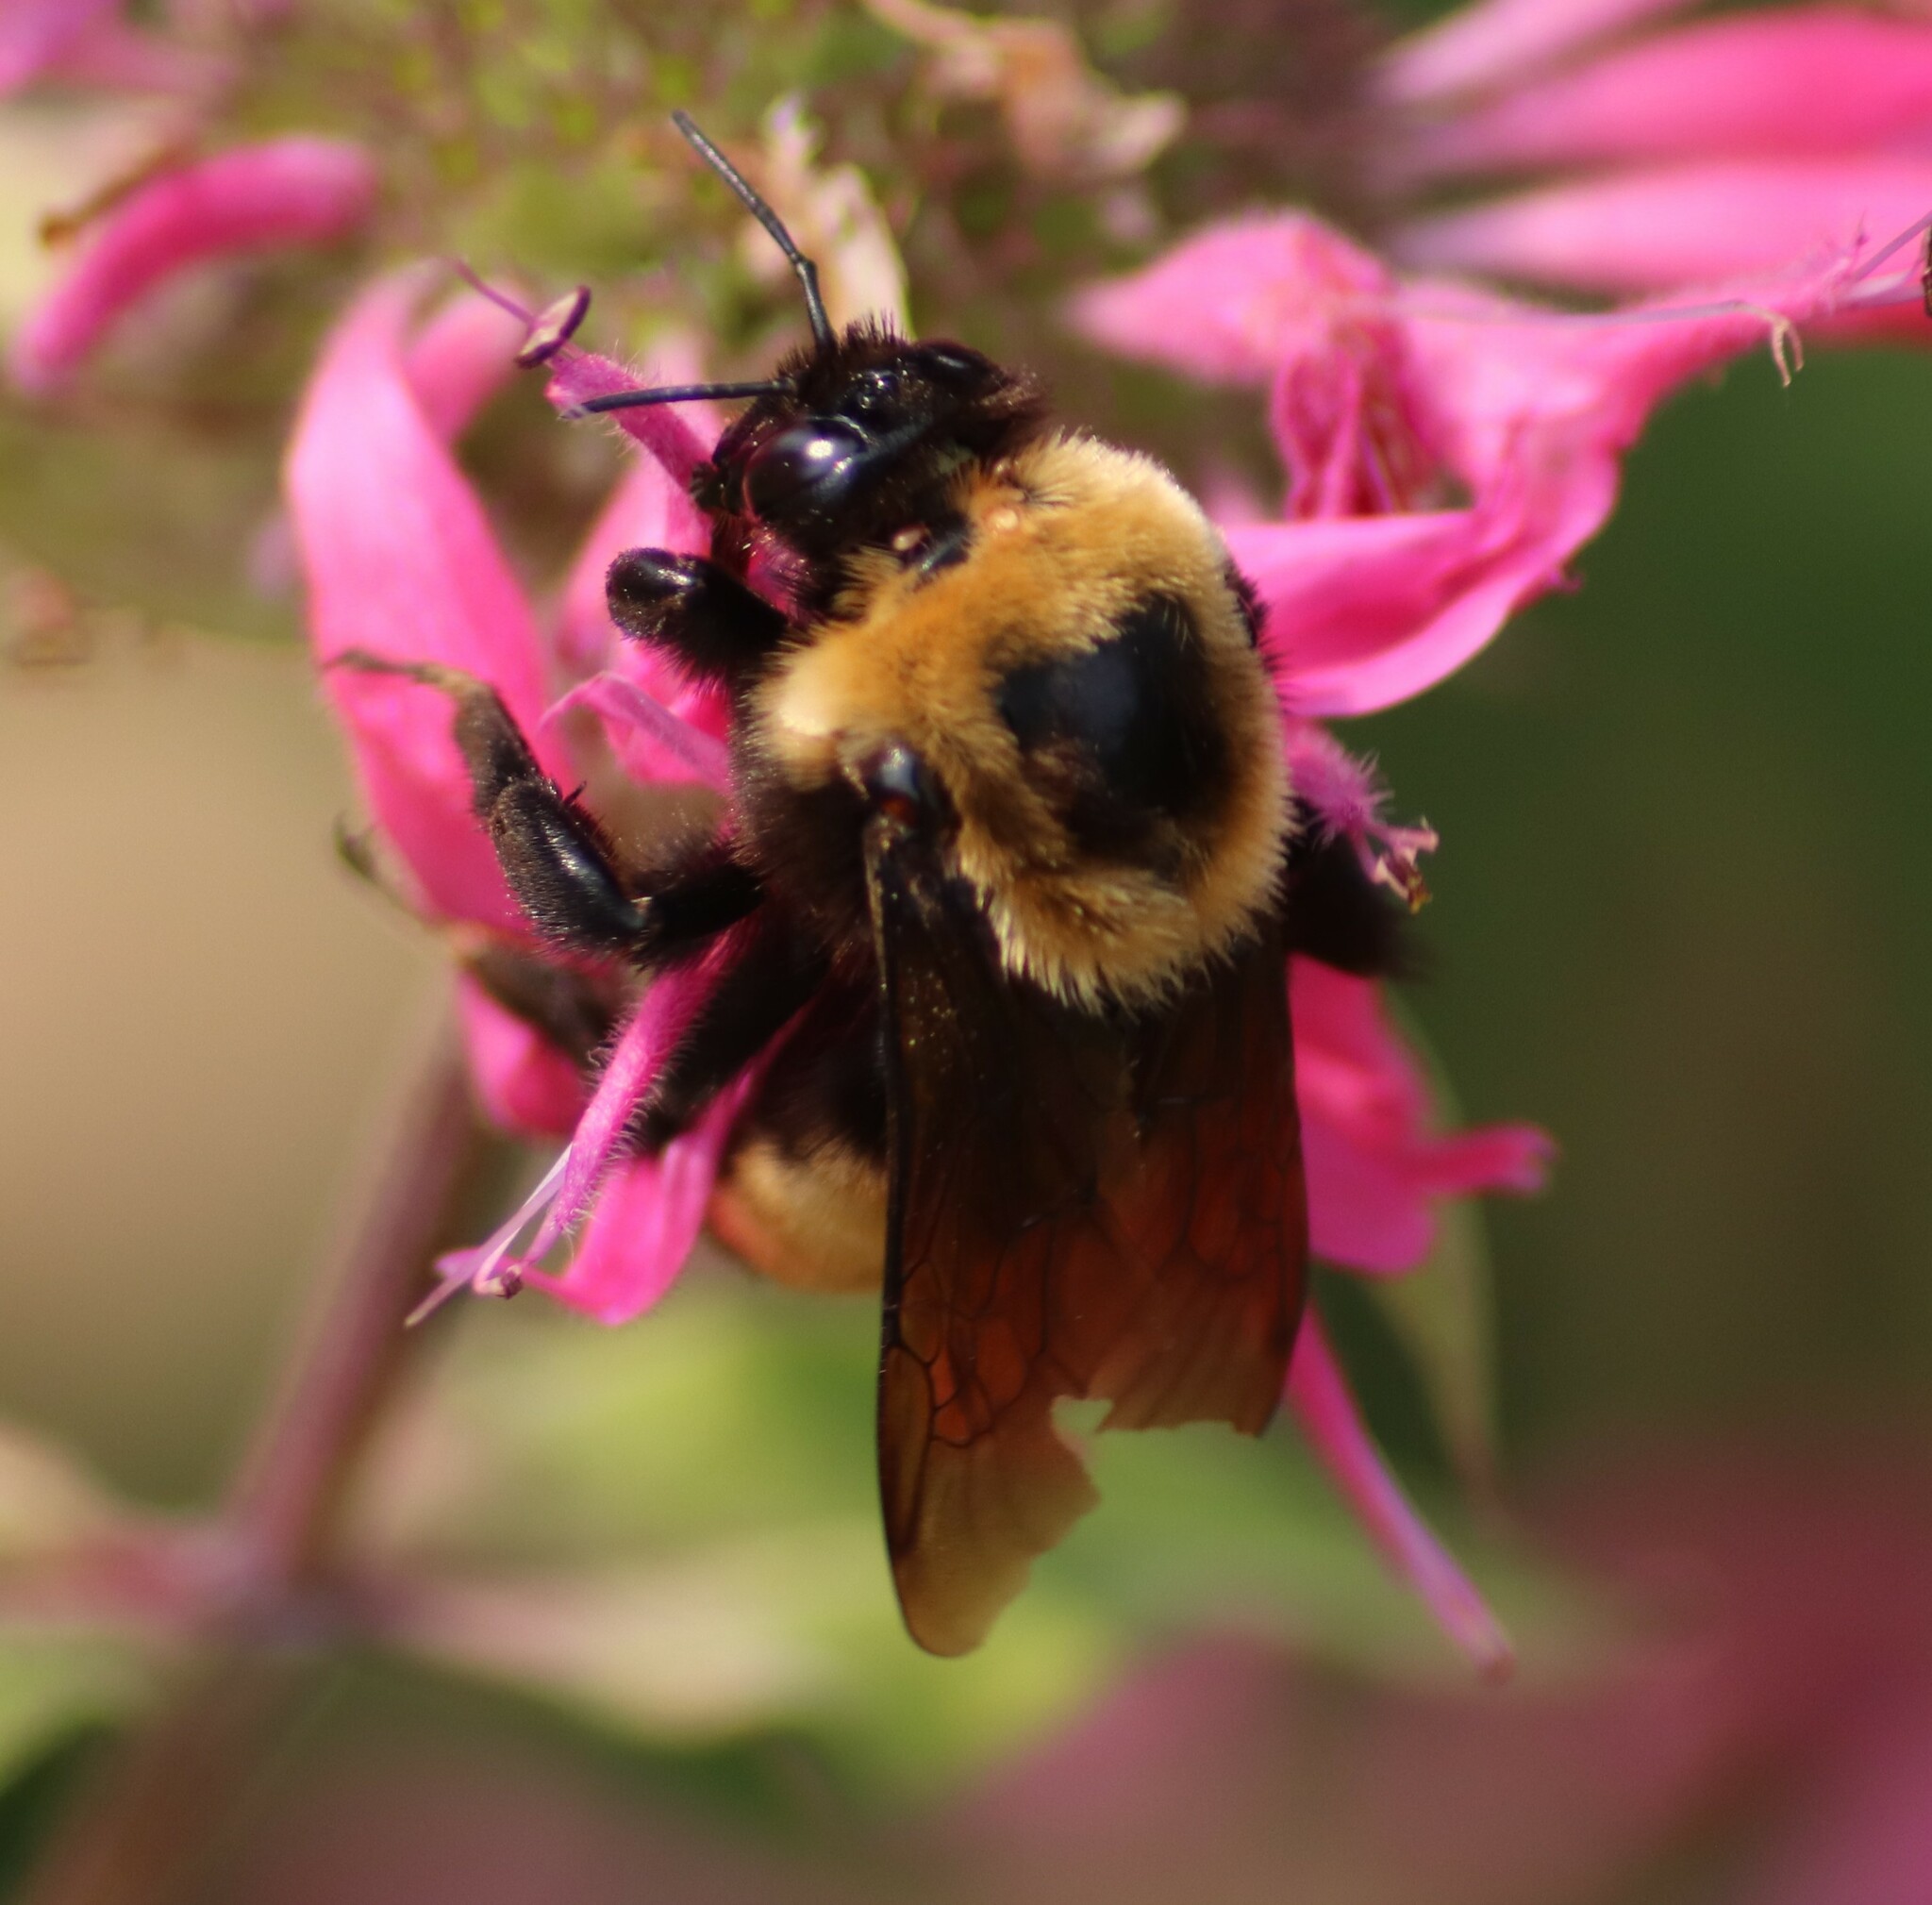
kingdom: Animalia
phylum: Arthropoda
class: Insecta
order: Hymenoptera
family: Apidae
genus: Bombus
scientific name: Bombus nevadensis
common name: Nevada bumble bee
